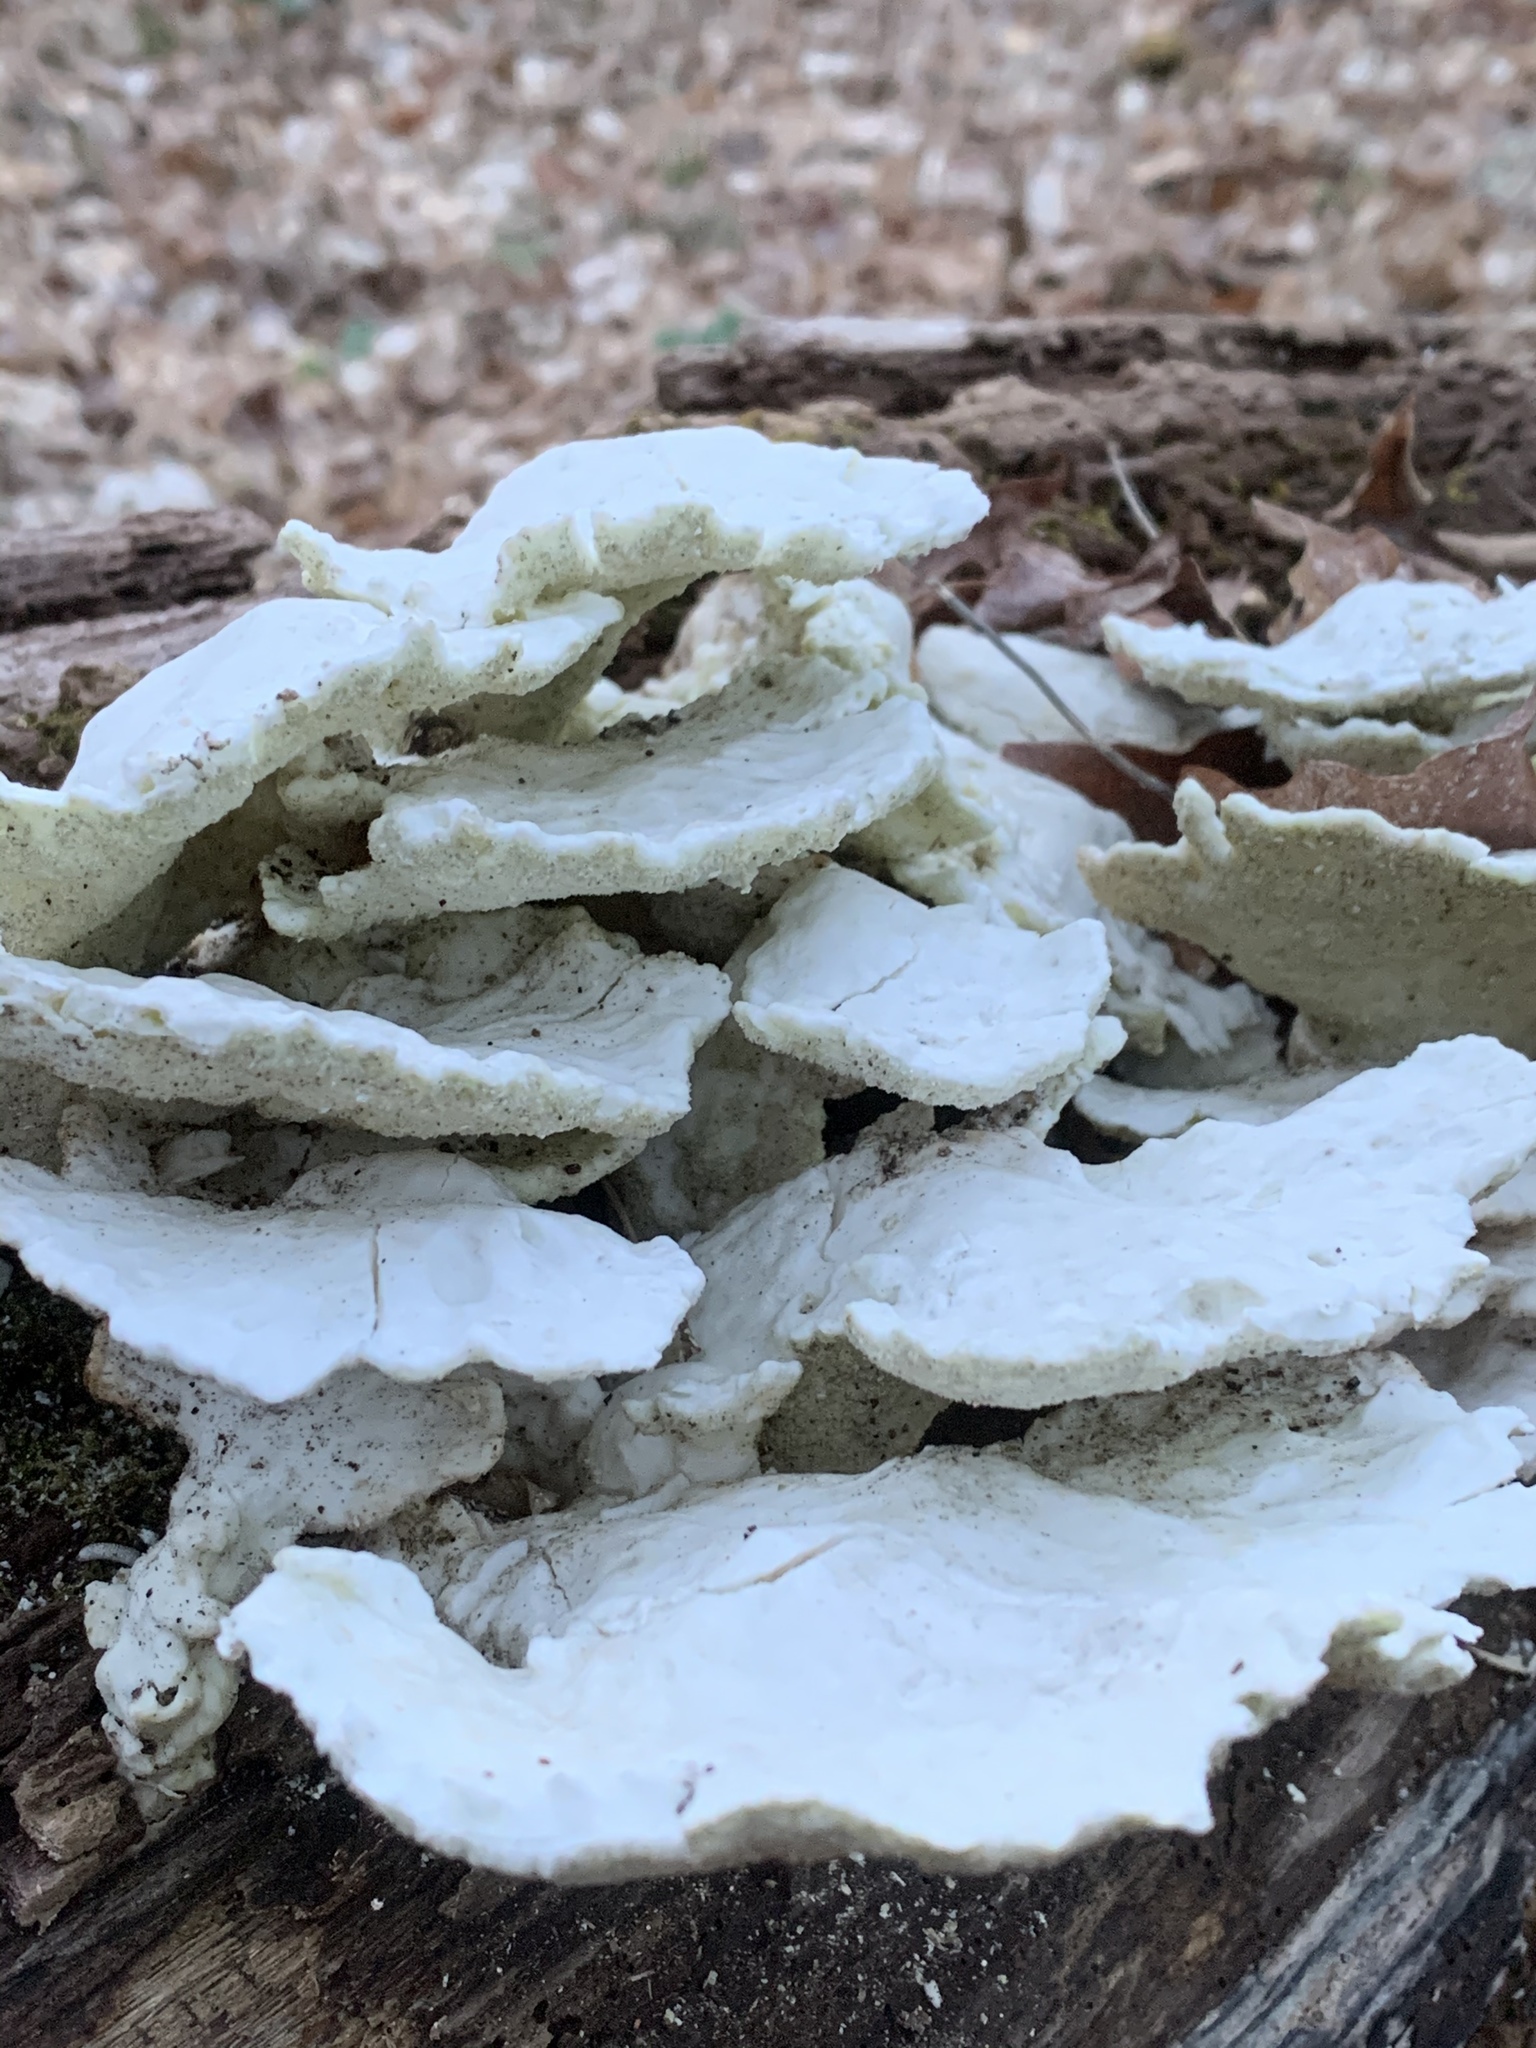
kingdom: Fungi
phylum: Basidiomycota
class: Agaricomycetes
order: Polyporales
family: Incrustoporiaceae
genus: Tyromyces
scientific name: Tyromyces chioneus
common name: White cheese polypore
